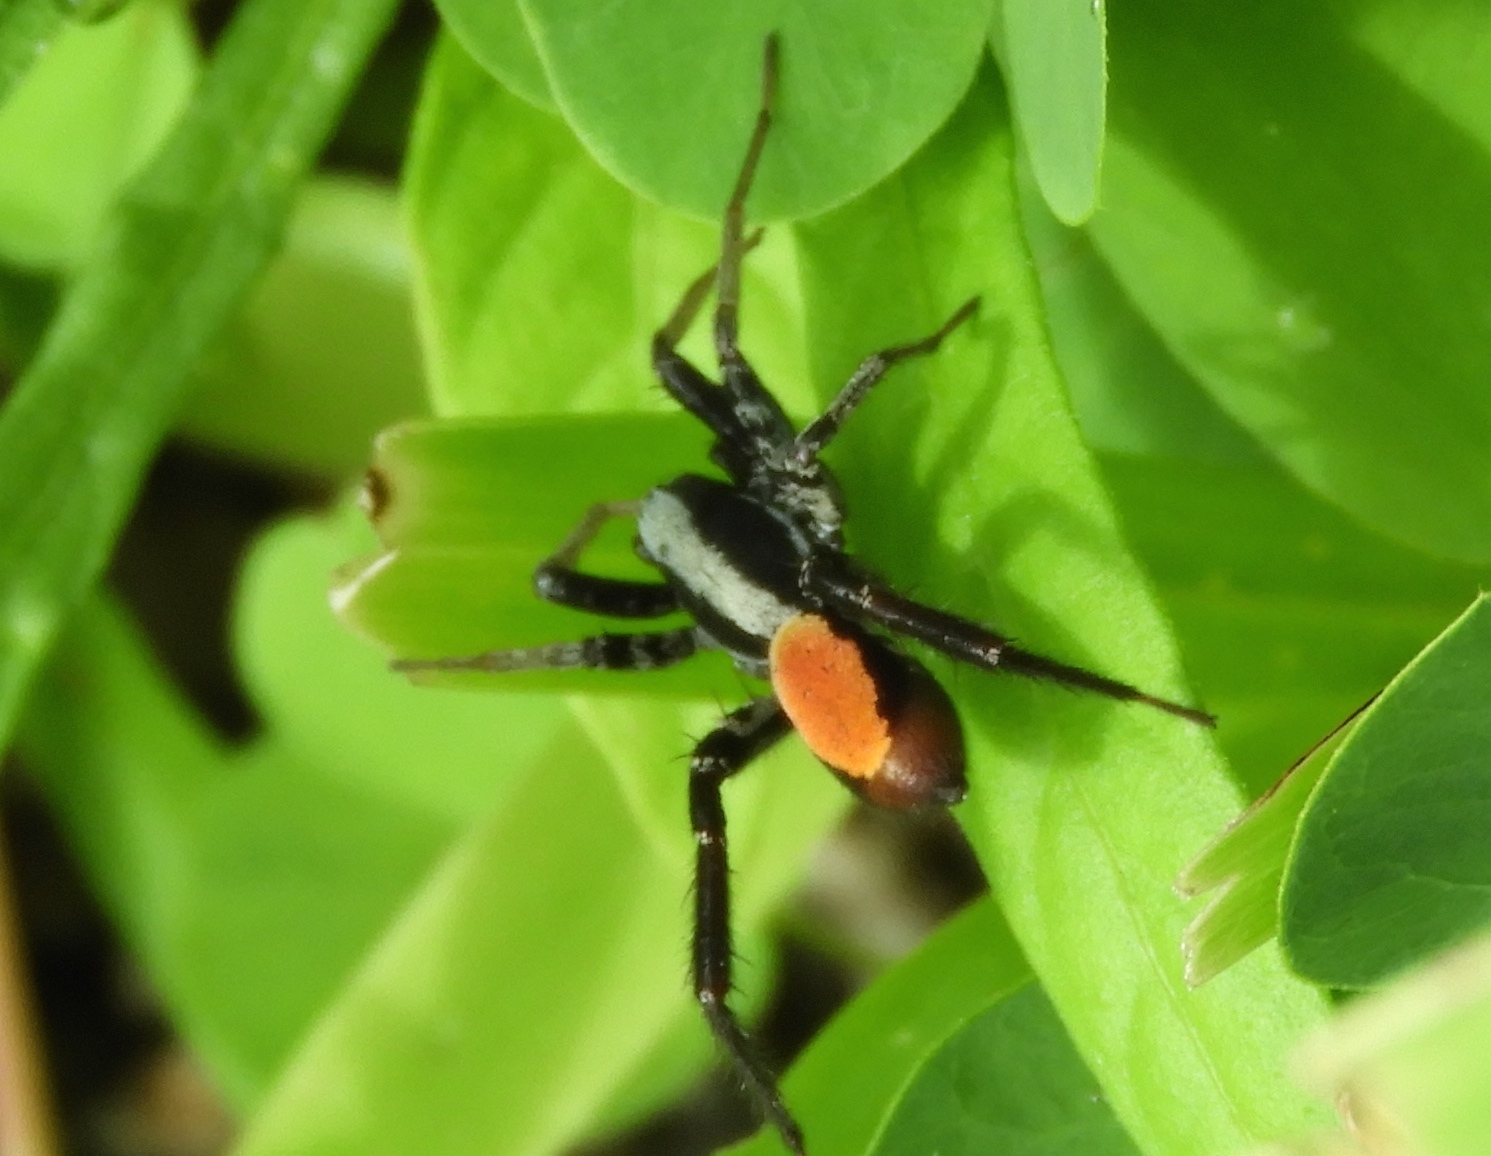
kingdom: Animalia
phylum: Arthropoda
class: Arachnida
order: Araneae
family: Corinnidae
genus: Castianeira
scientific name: Castianeira dorsata
